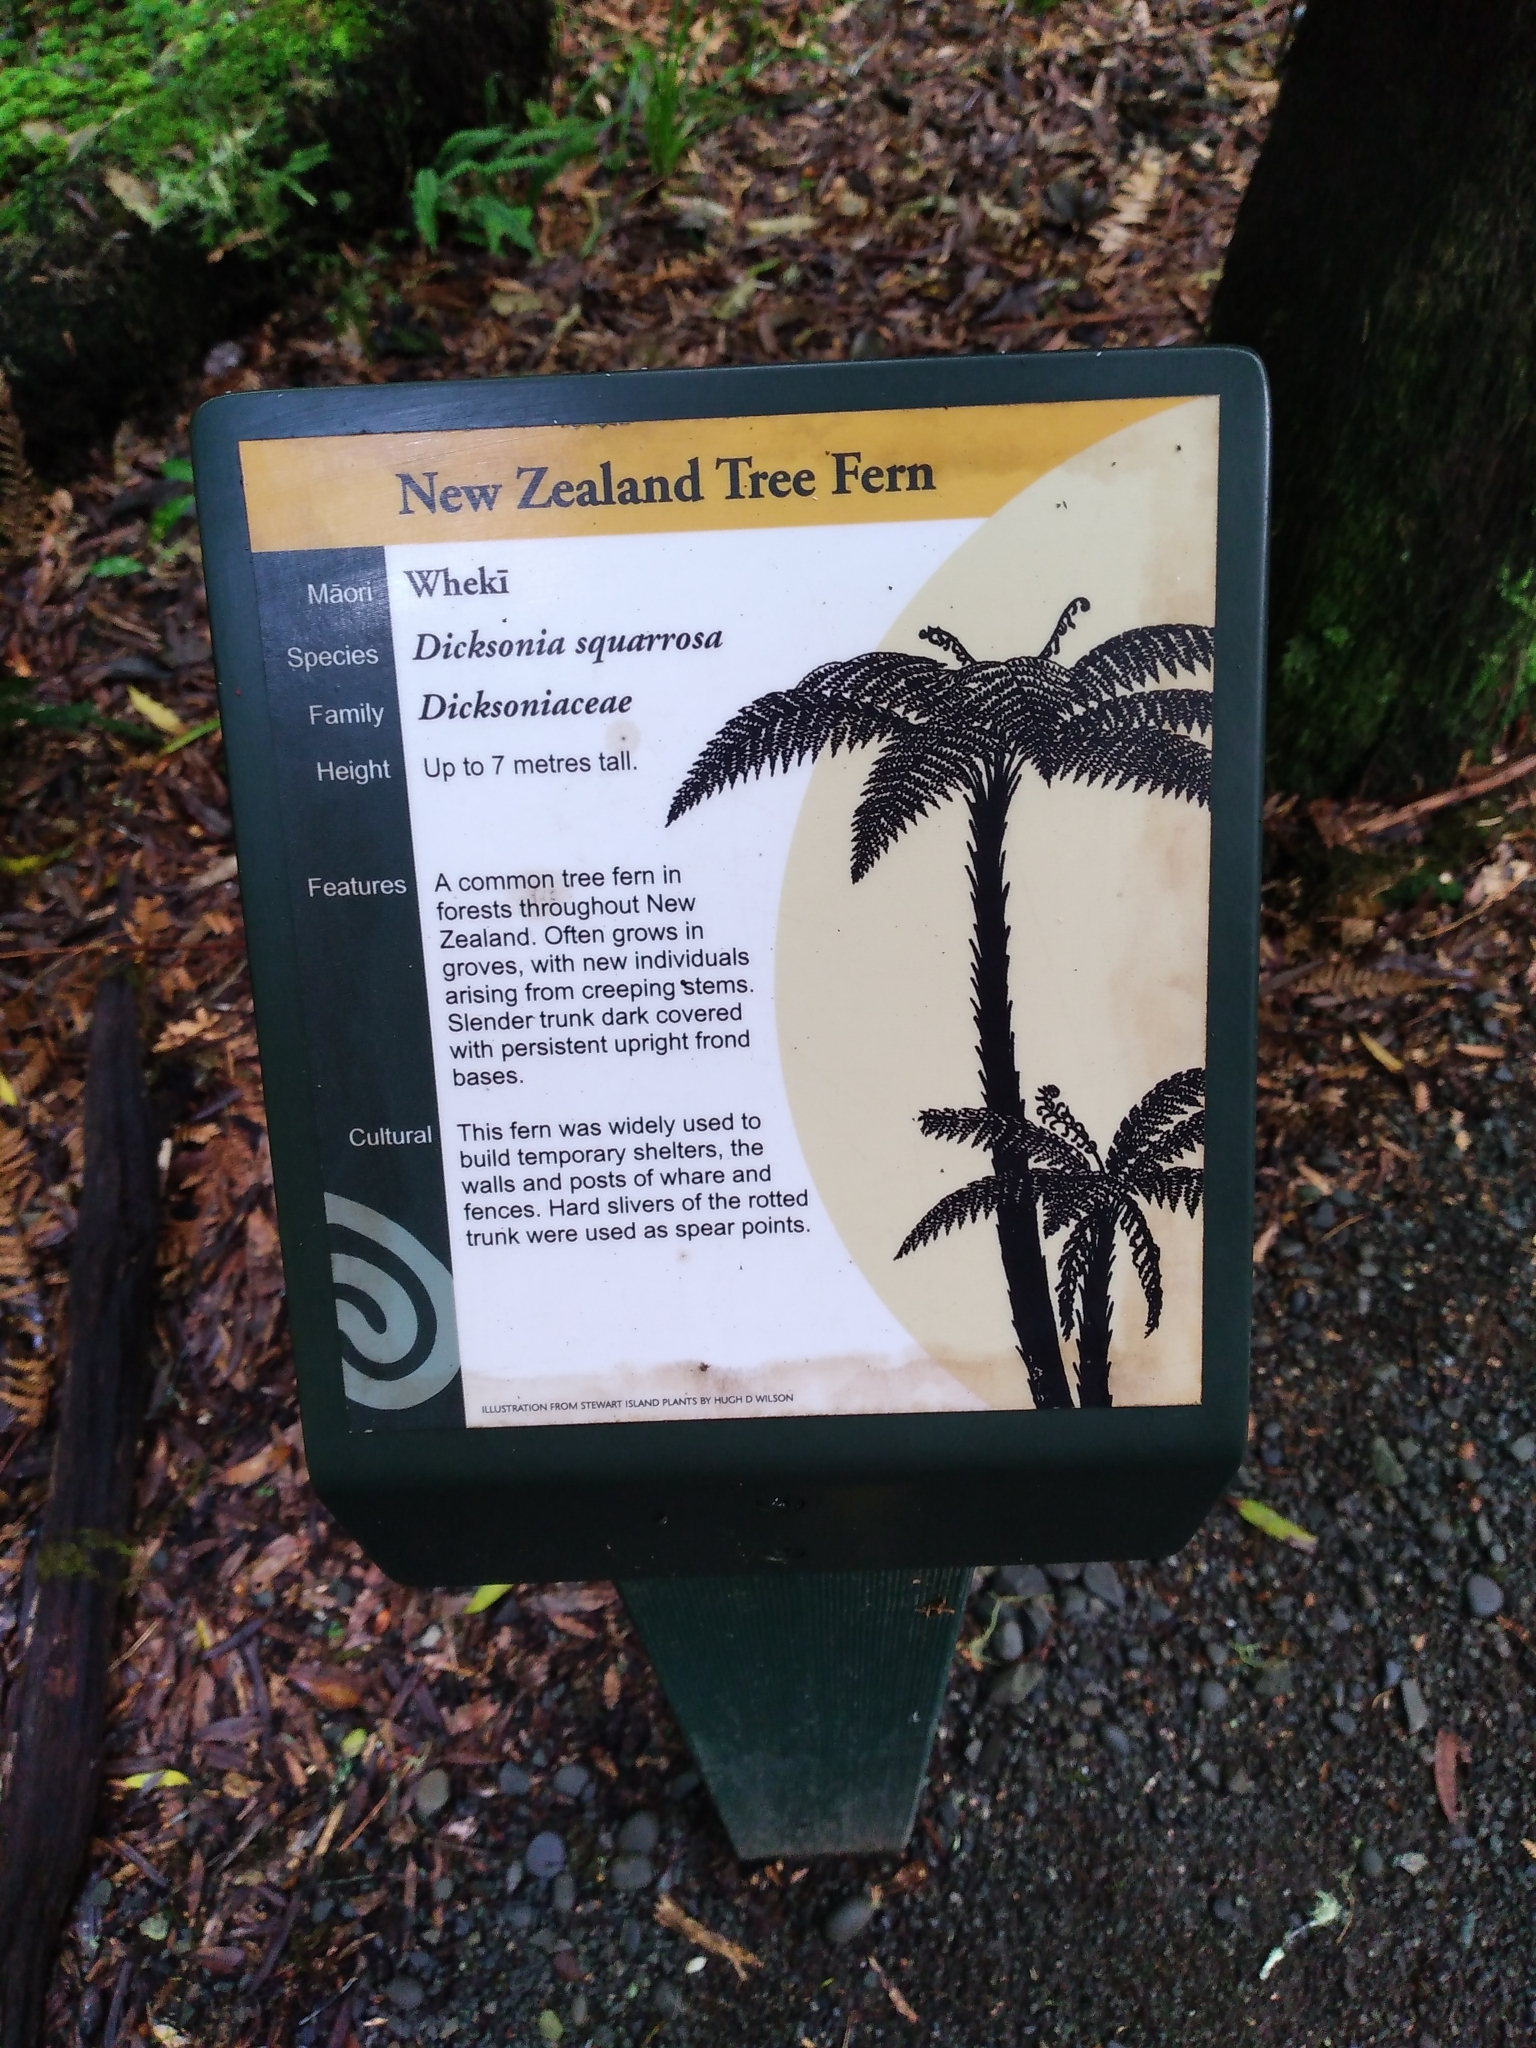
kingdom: Plantae
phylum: Tracheophyta
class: Polypodiopsida
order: Cyatheales
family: Dicksoniaceae
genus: Dicksonia
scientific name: Dicksonia fibrosa
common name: Golden tree fern
